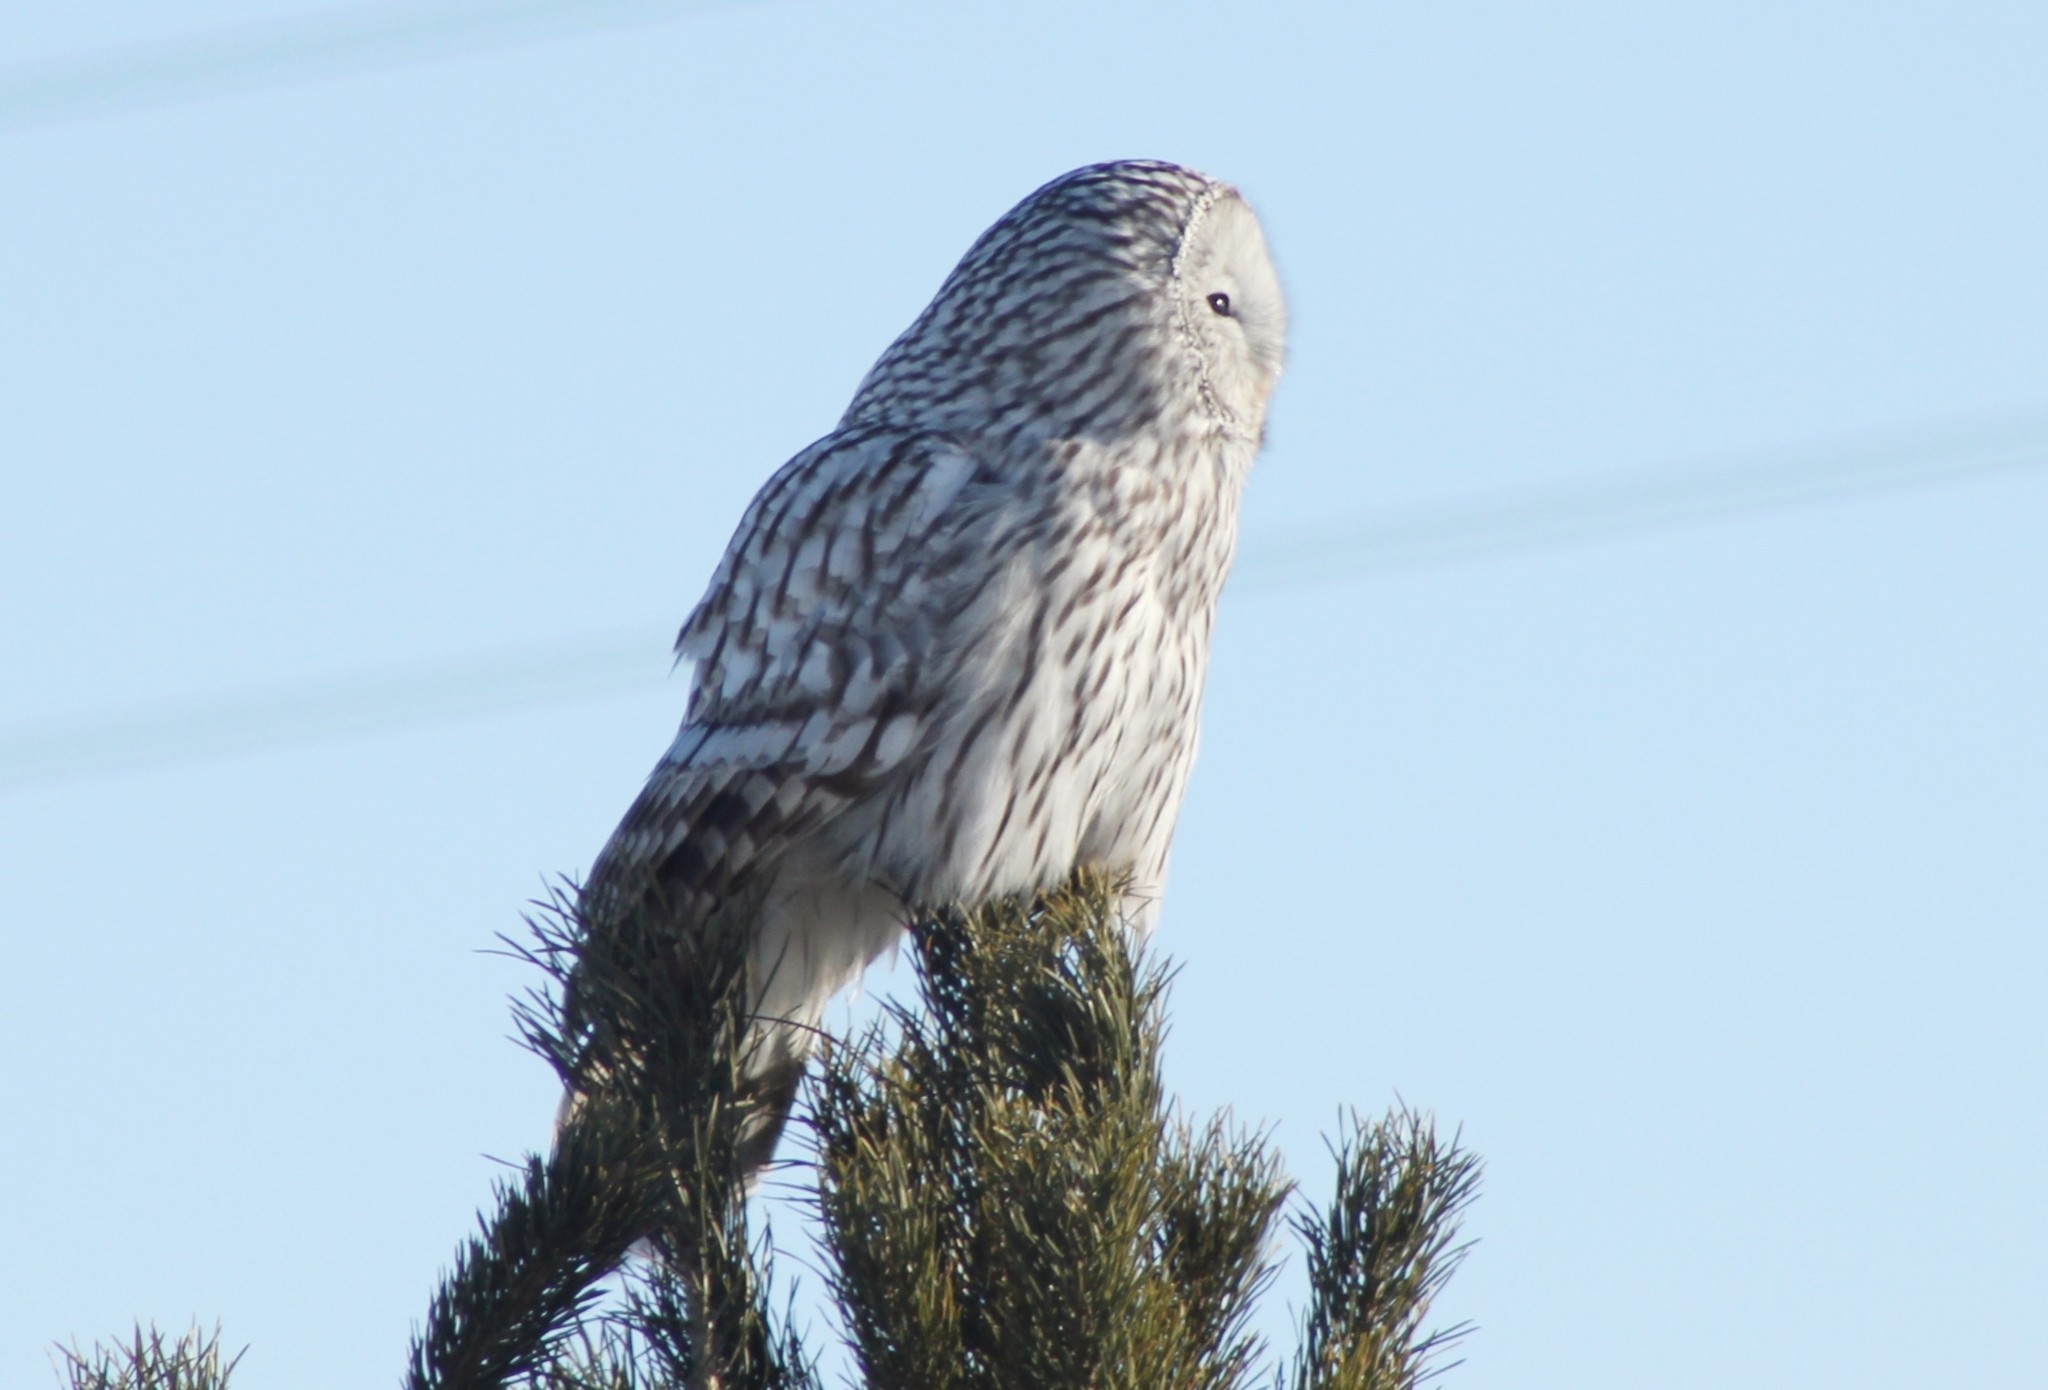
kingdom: Animalia
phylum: Chordata
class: Aves
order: Strigiformes
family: Strigidae
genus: Strix
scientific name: Strix uralensis
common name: Ural owl
